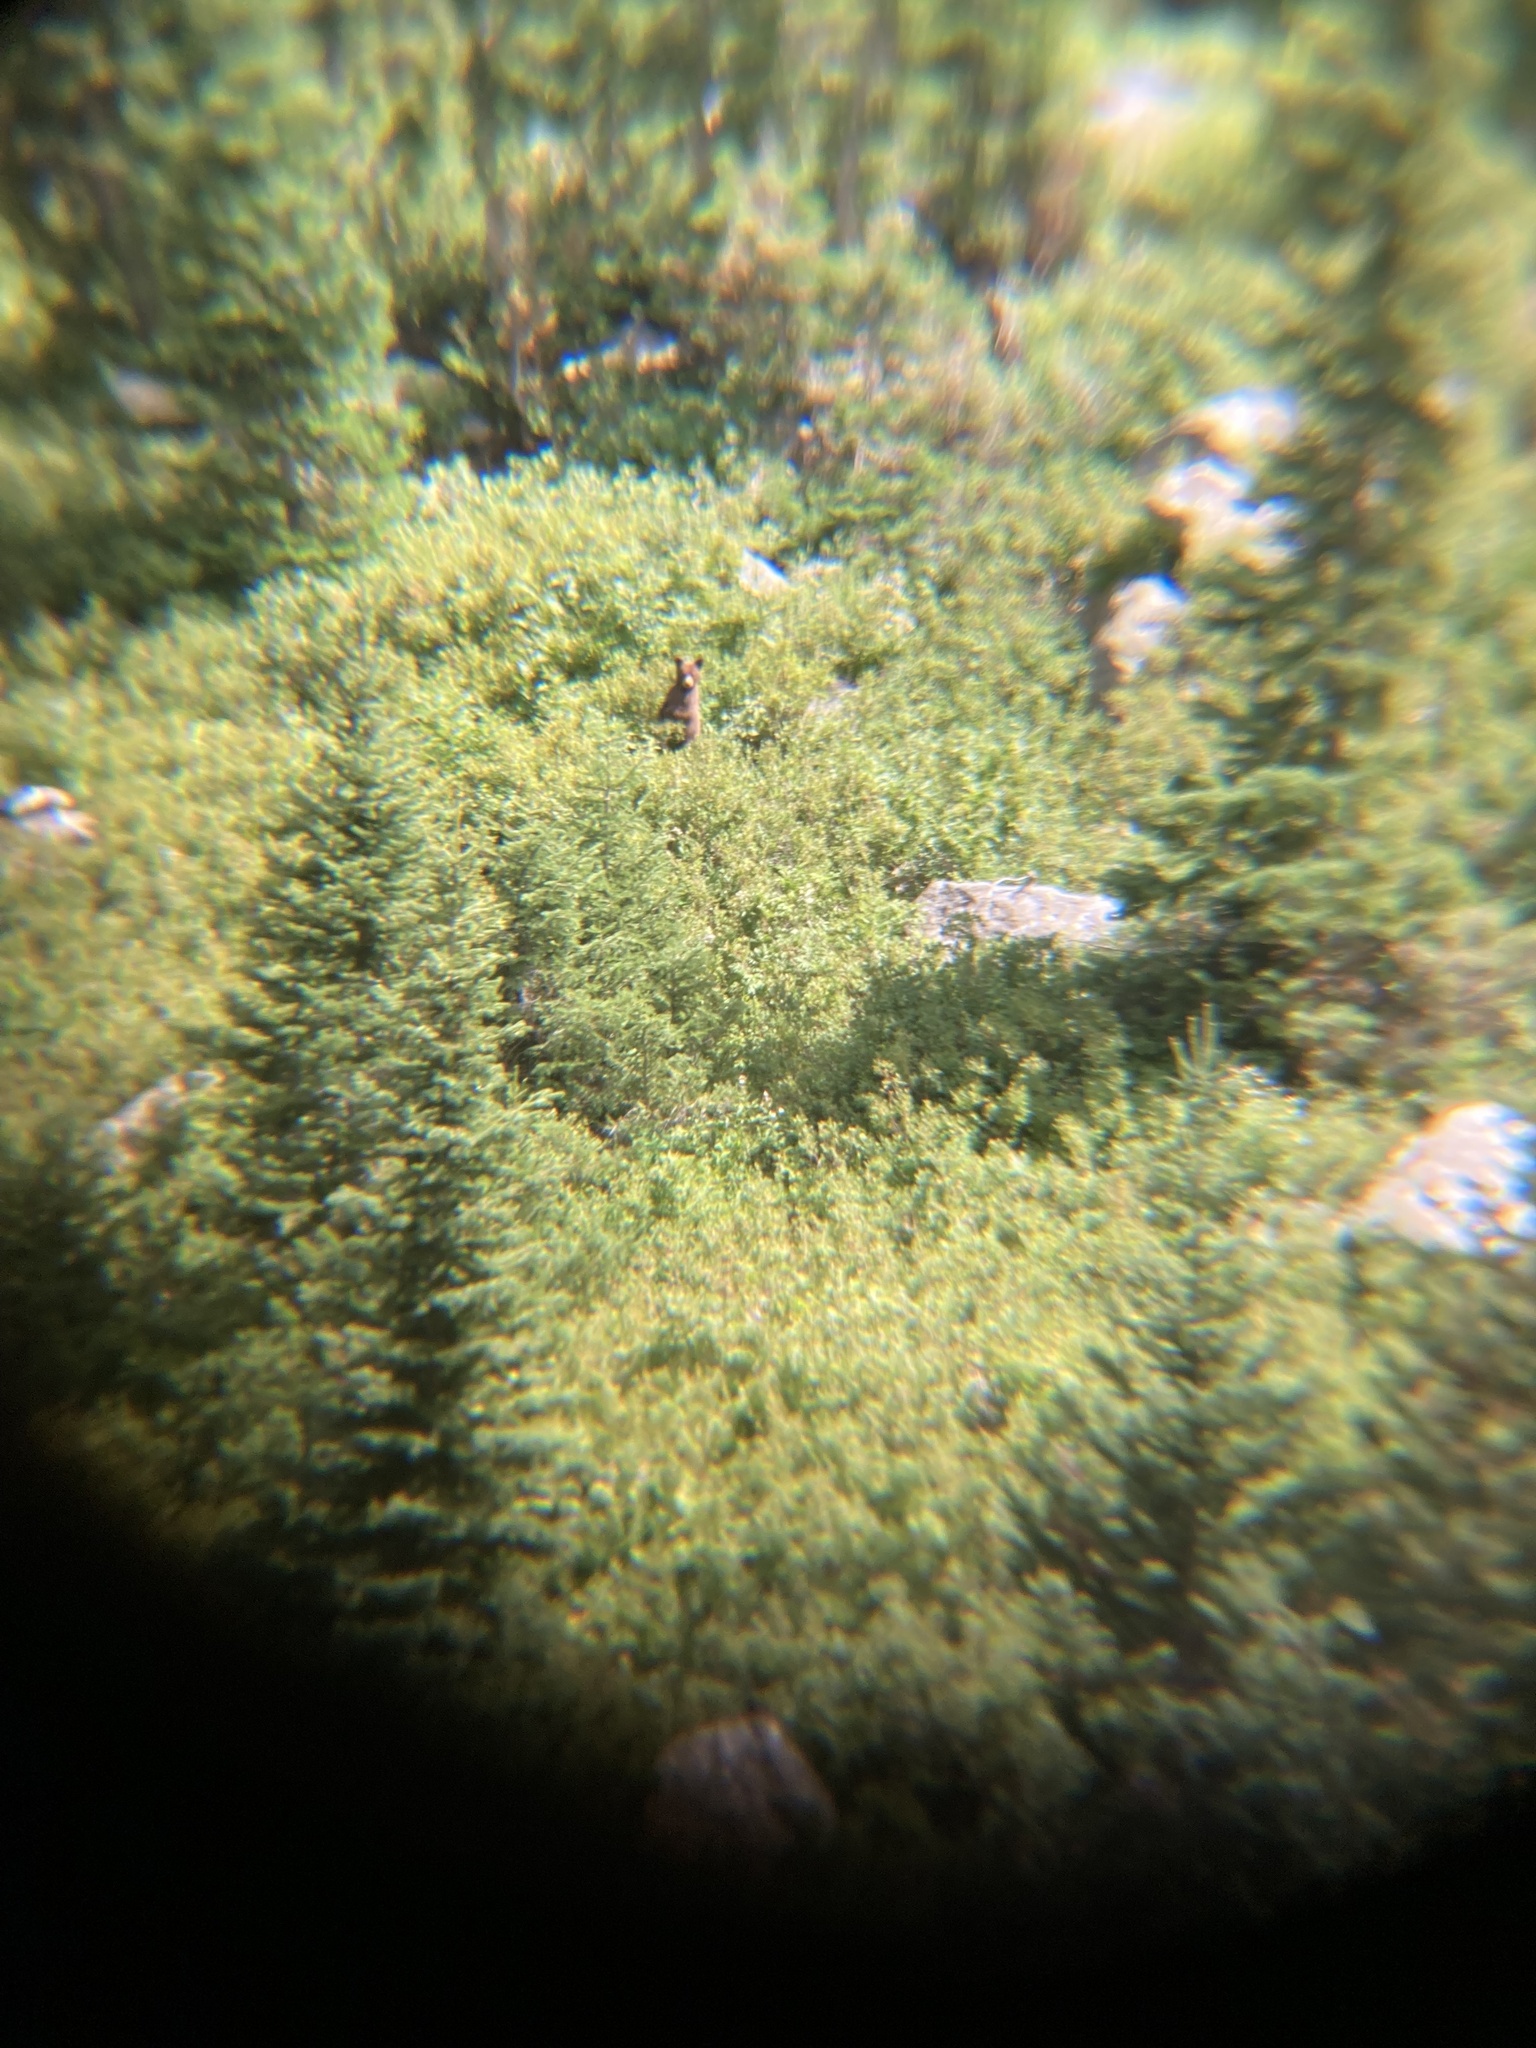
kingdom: Animalia
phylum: Chordata
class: Mammalia
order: Carnivora
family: Ursidae
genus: Ursus
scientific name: Ursus americanus
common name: American black bear
